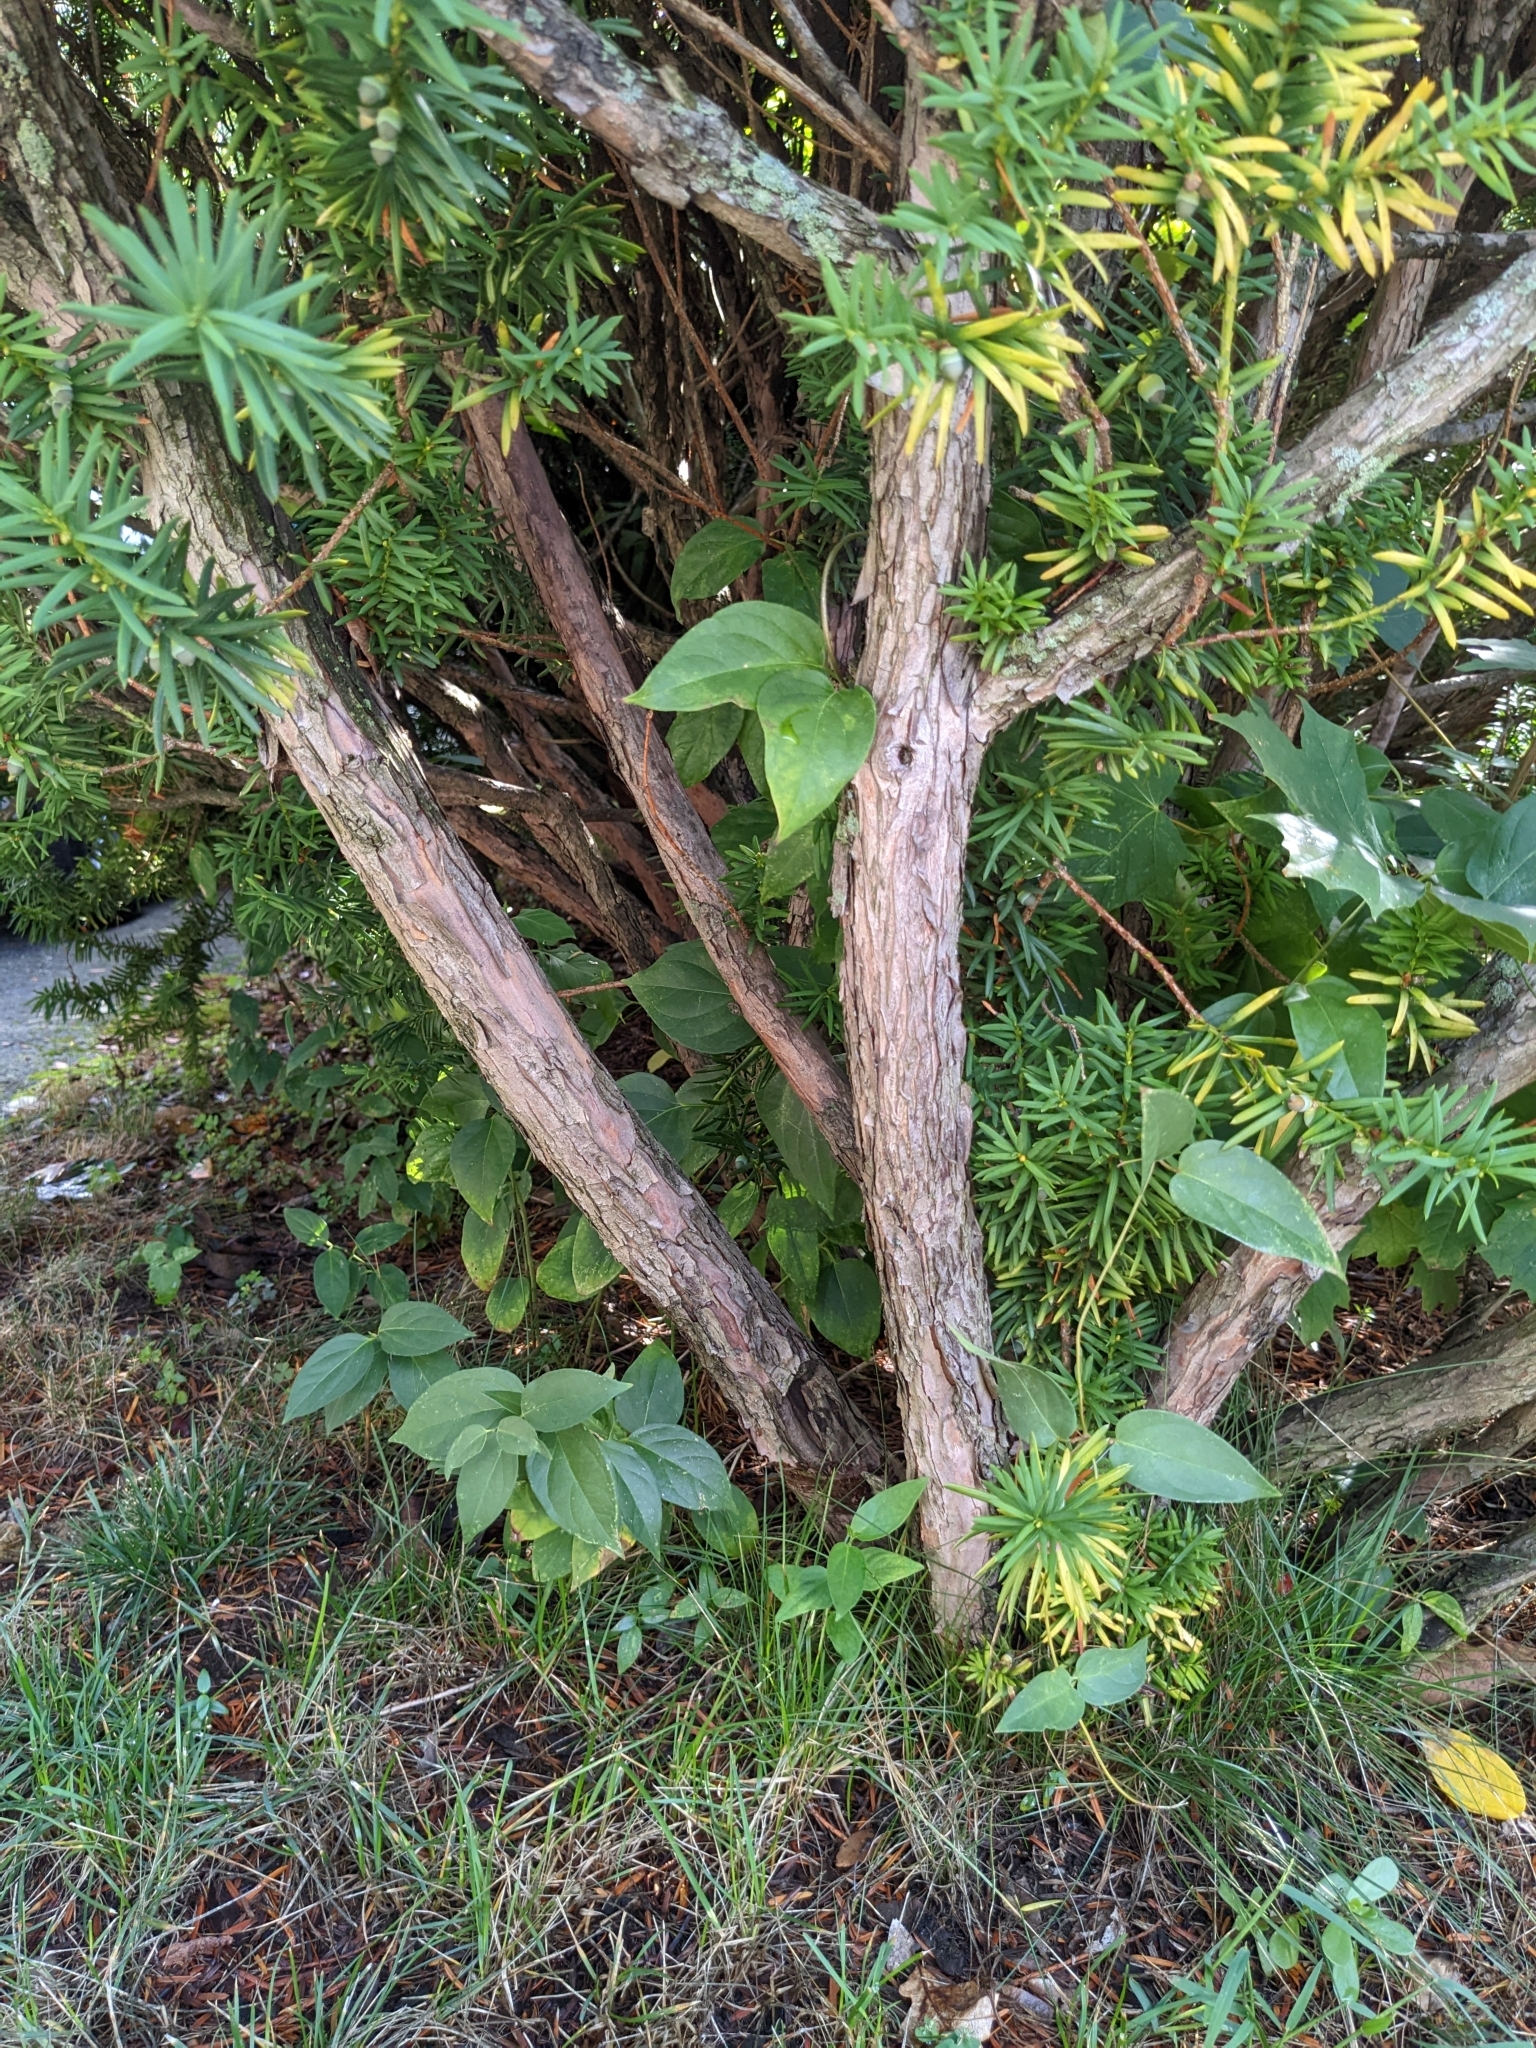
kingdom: Plantae
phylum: Tracheophyta
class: Magnoliopsida
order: Gentianales
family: Apocynaceae
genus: Vincetoxicum
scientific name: Vincetoxicum nigrum
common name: Black swallow-wort
